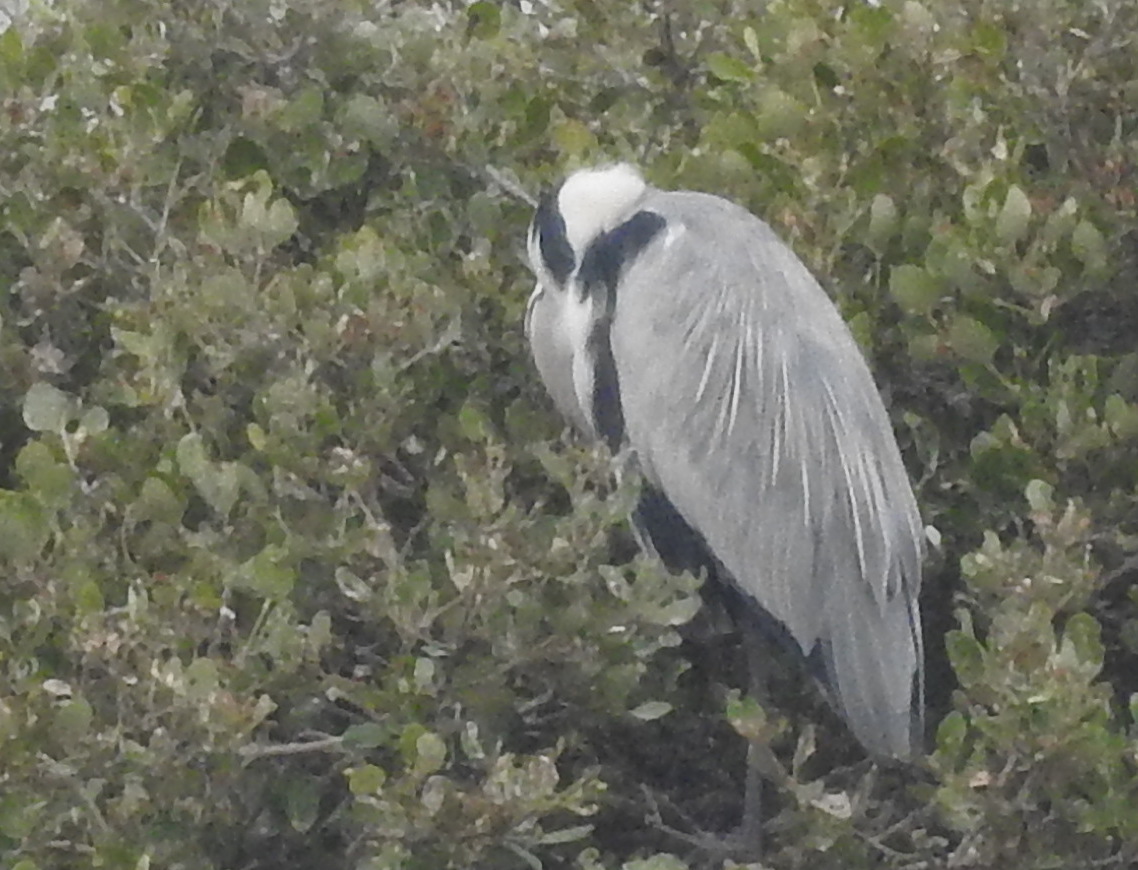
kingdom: Animalia
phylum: Chordata
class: Aves
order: Pelecaniformes
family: Ardeidae
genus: Ardea
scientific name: Ardea cinerea
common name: Grey heron
